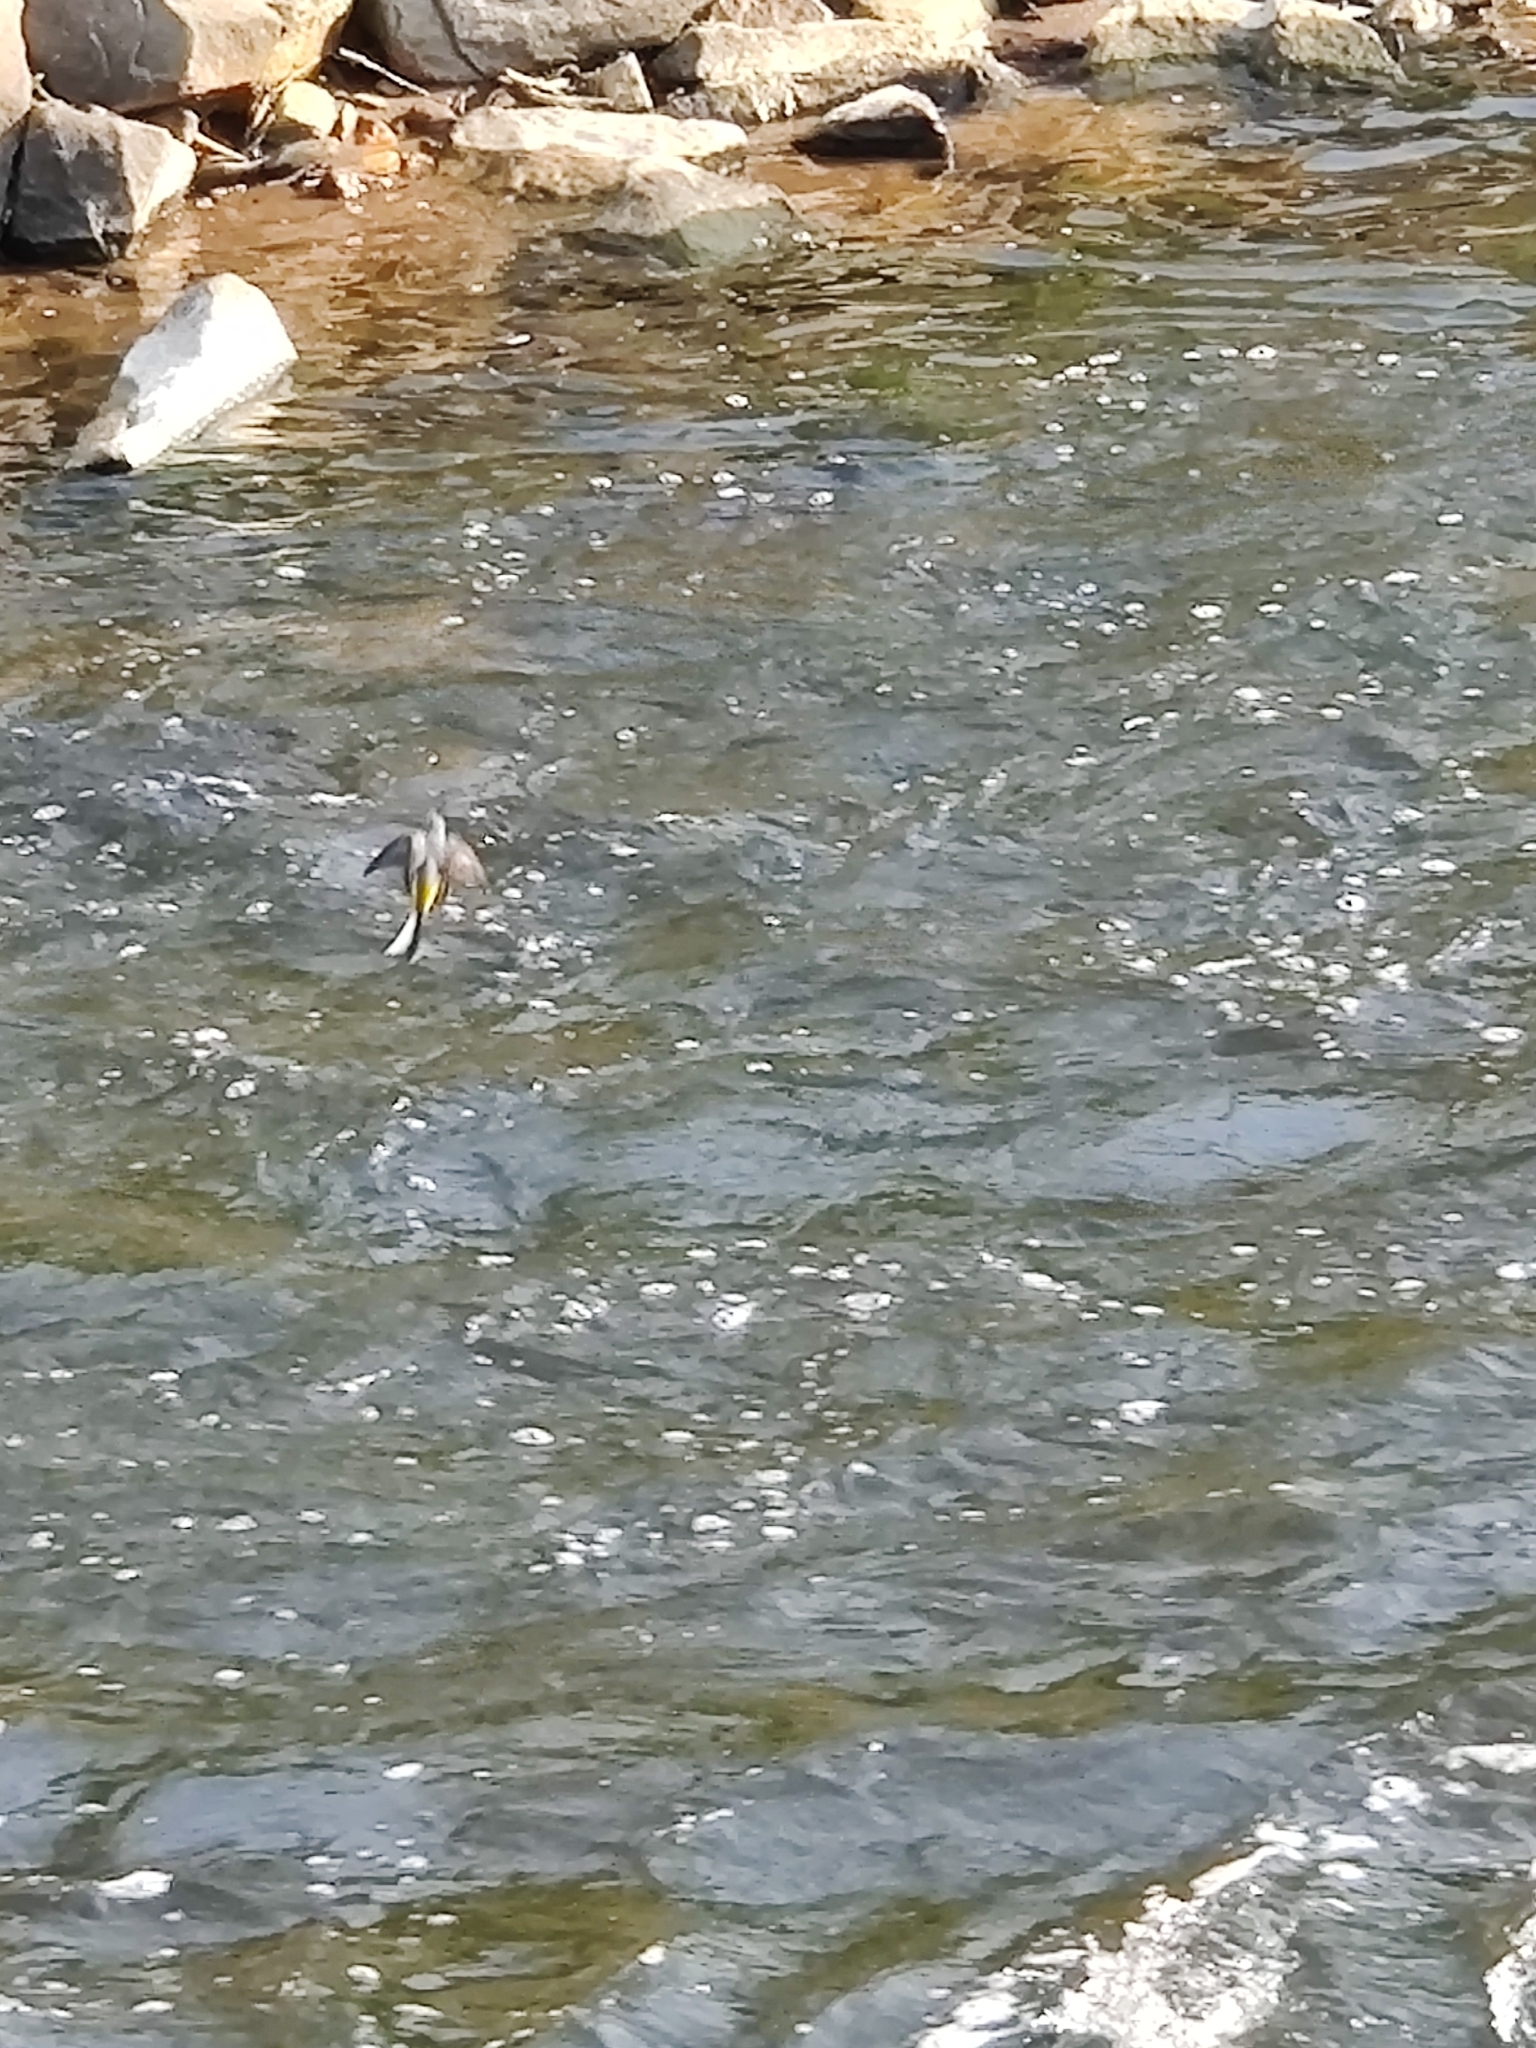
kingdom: Animalia
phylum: Chordata
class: Aves
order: Passeriformes
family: Motacillidae
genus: Motacilla
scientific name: Motacilla cinerea
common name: Grey wagtail
